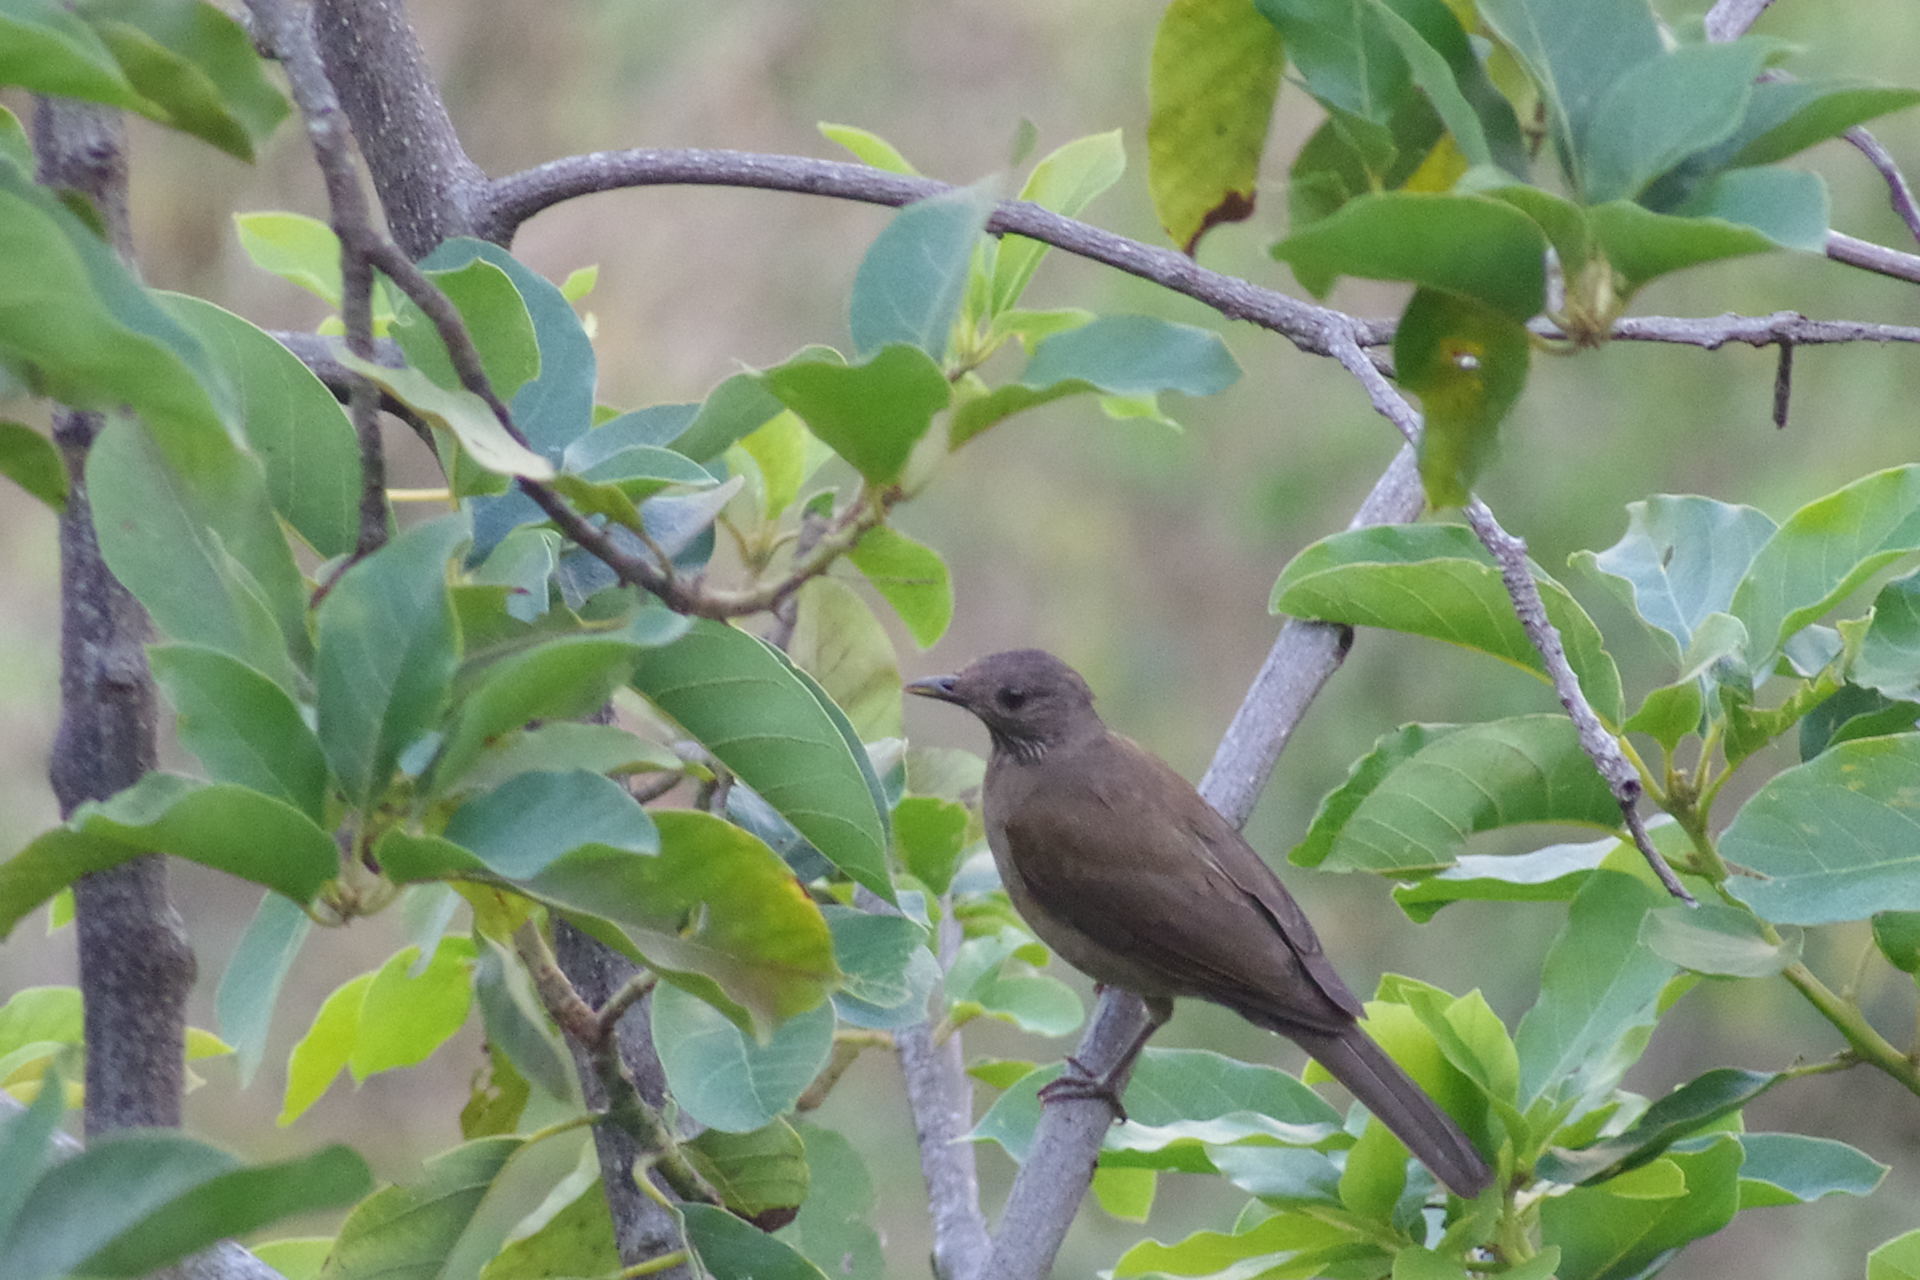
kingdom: Animalia
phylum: Chordata
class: Aves
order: Passeriformes
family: Turdidae
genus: Turdus
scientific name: Turdus leucomelas
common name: Pale-breasted thrush
